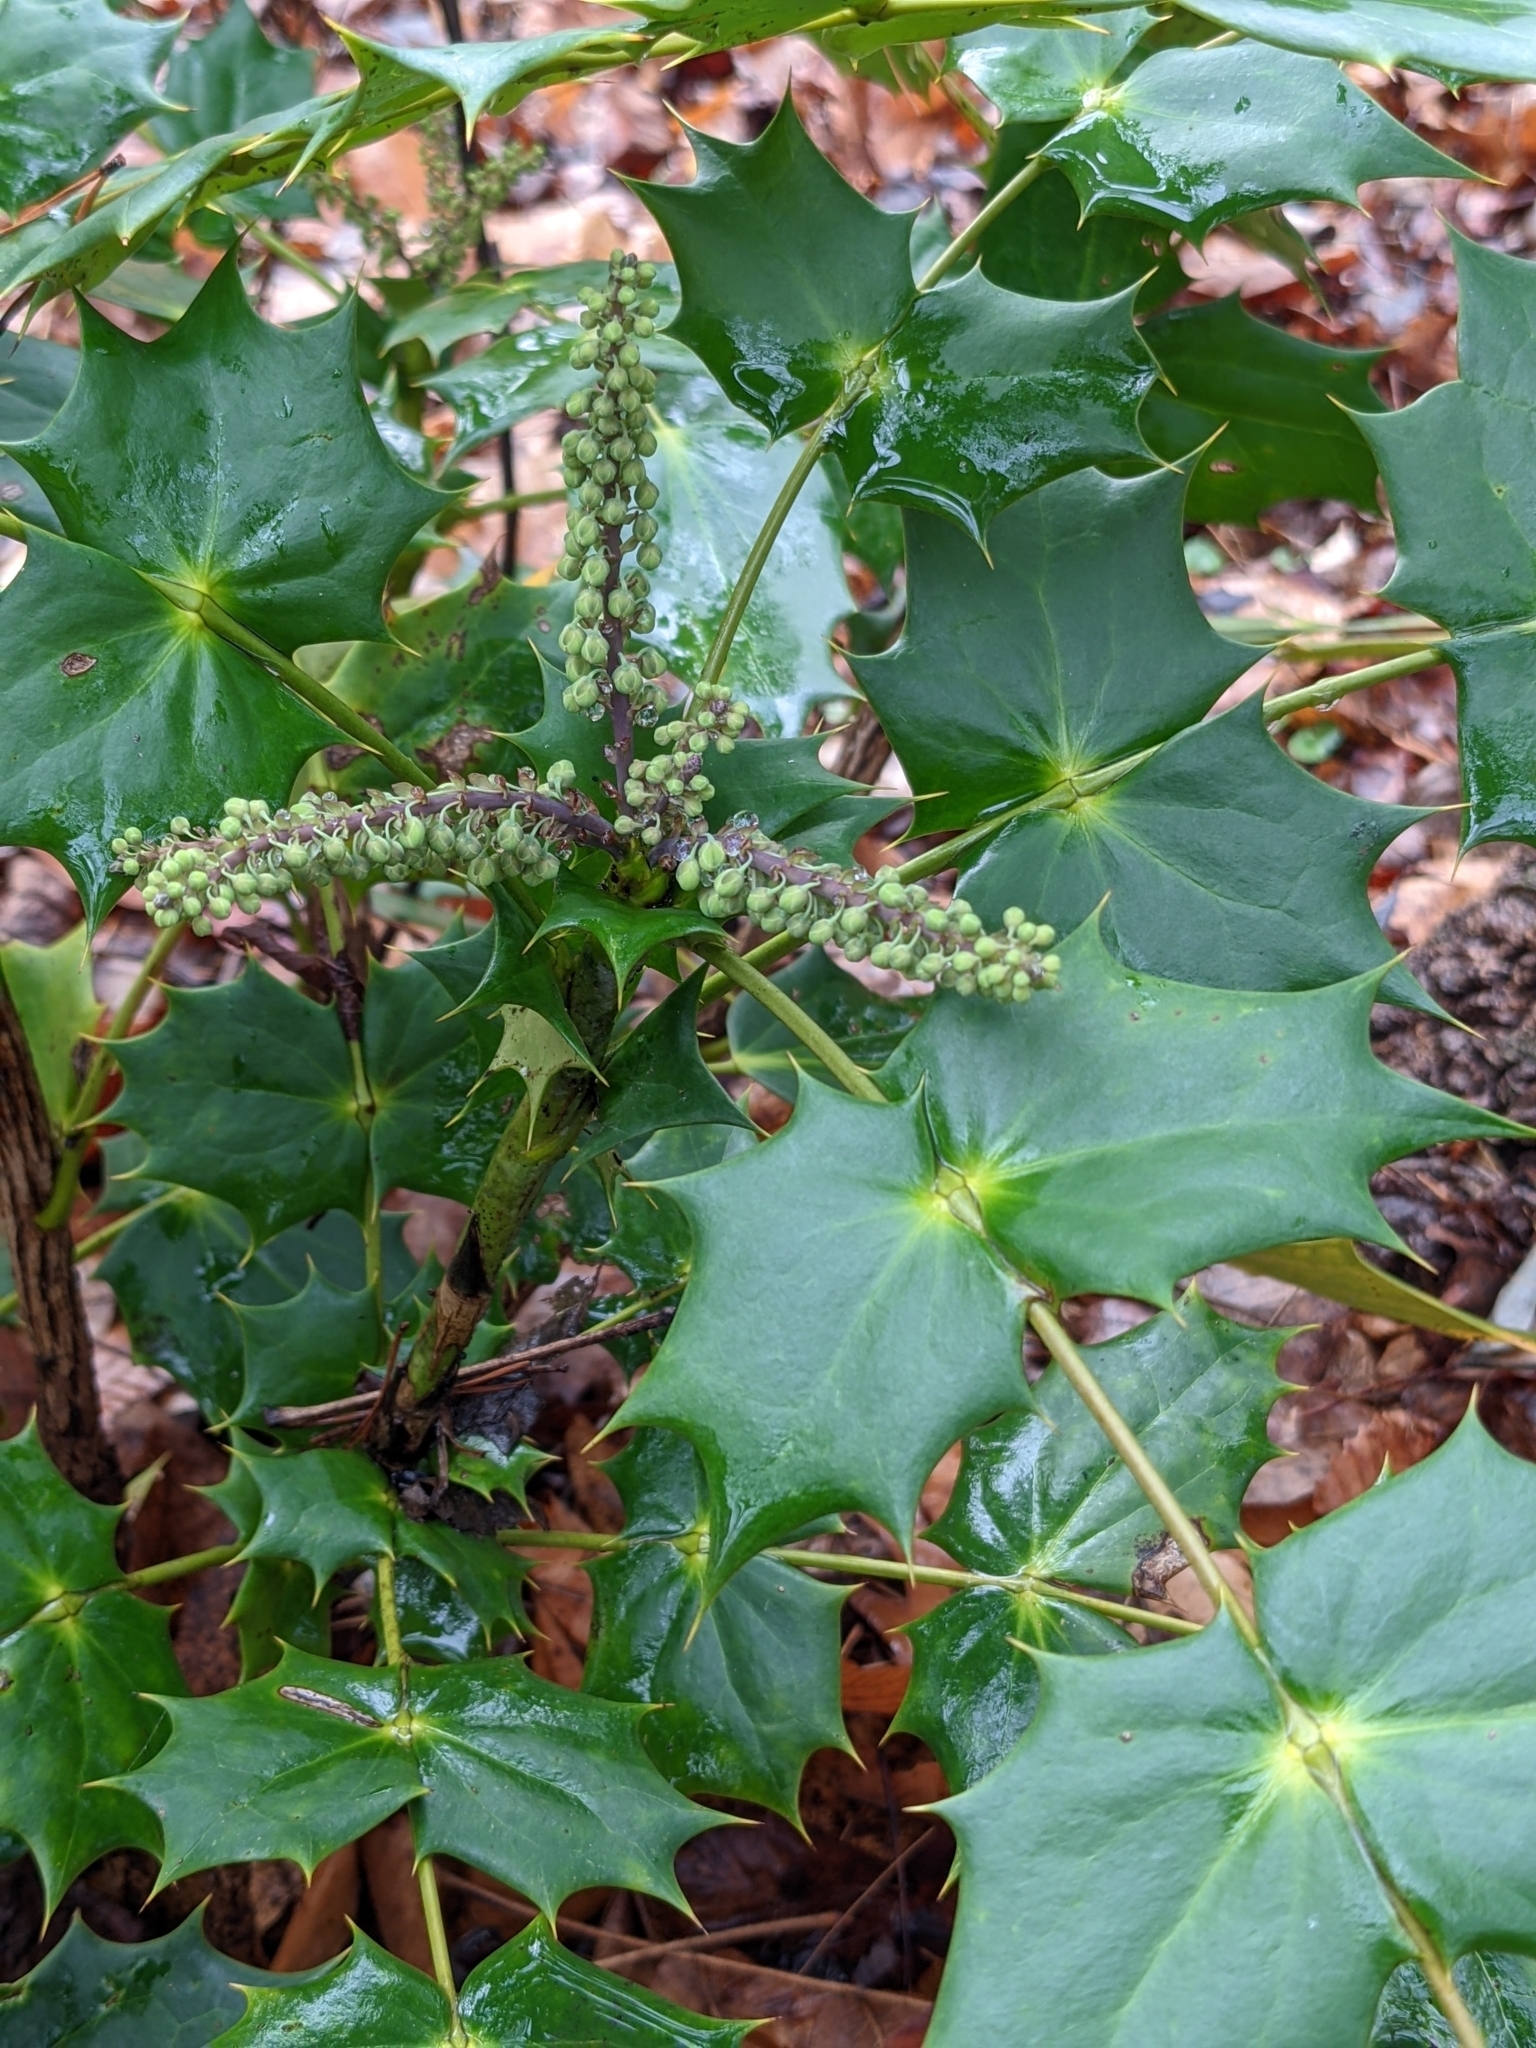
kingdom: Plantae
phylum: Tracheophyta
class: Magnoliopsida
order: Ranunculales
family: Berberidaceae
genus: Mahonia
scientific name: Mahonia bealei
